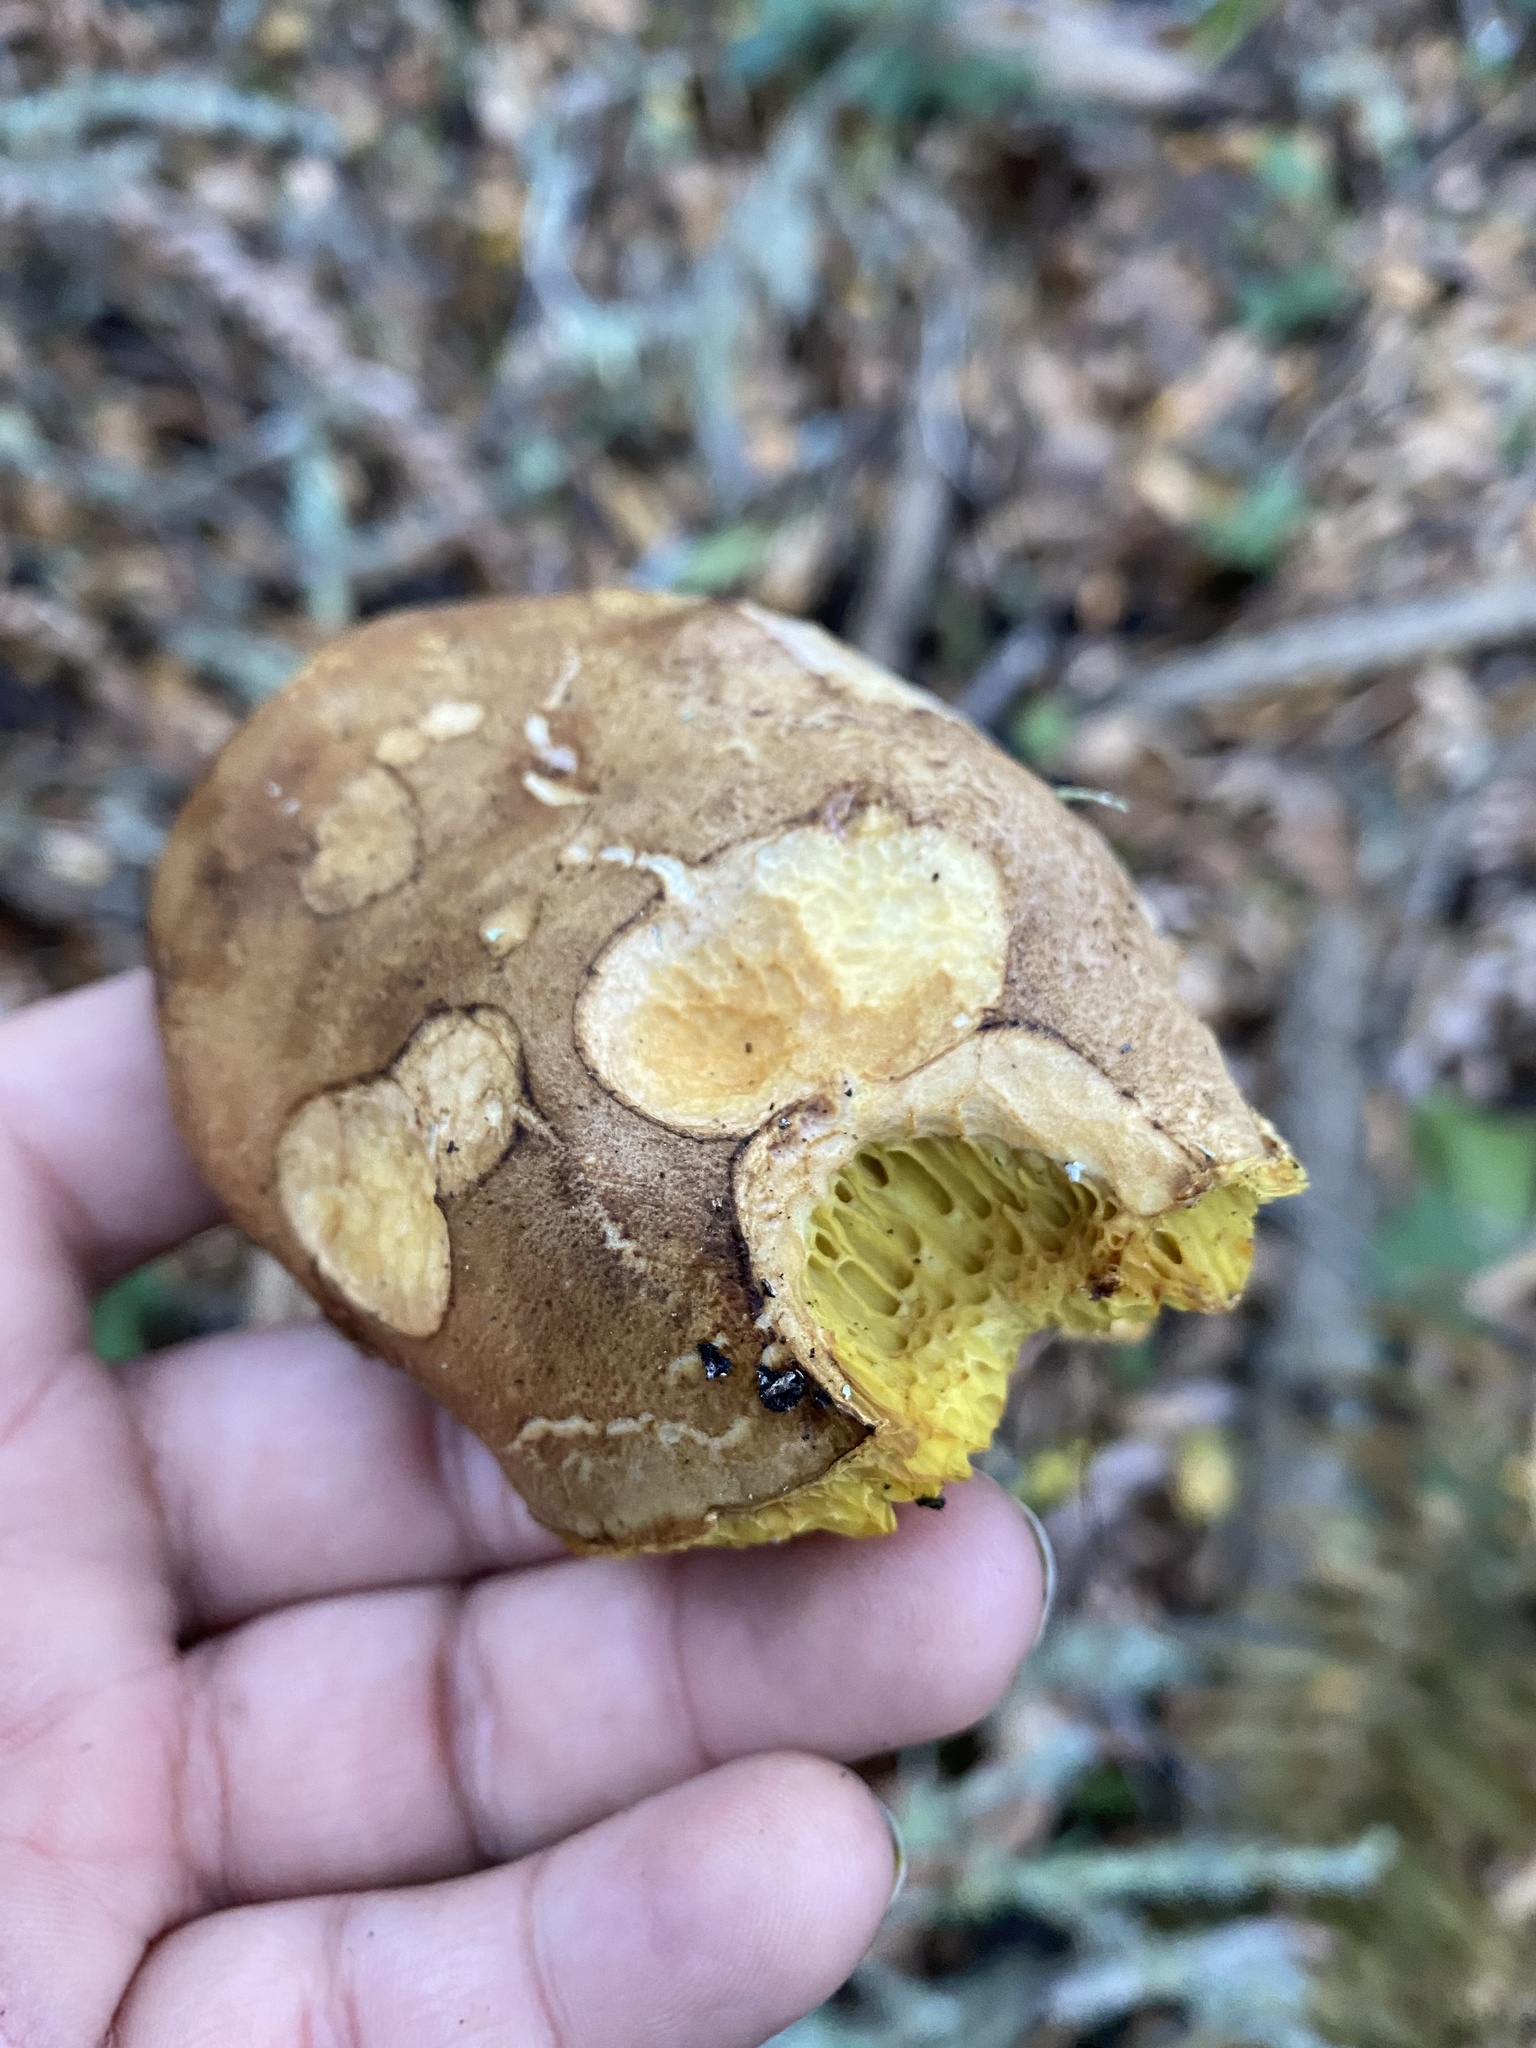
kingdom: Fungi
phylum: Basidiomycota
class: Agaricomycetes
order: Boletales
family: Boletaceae
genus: Xerocomus
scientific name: Xerocomus subtomentosus
